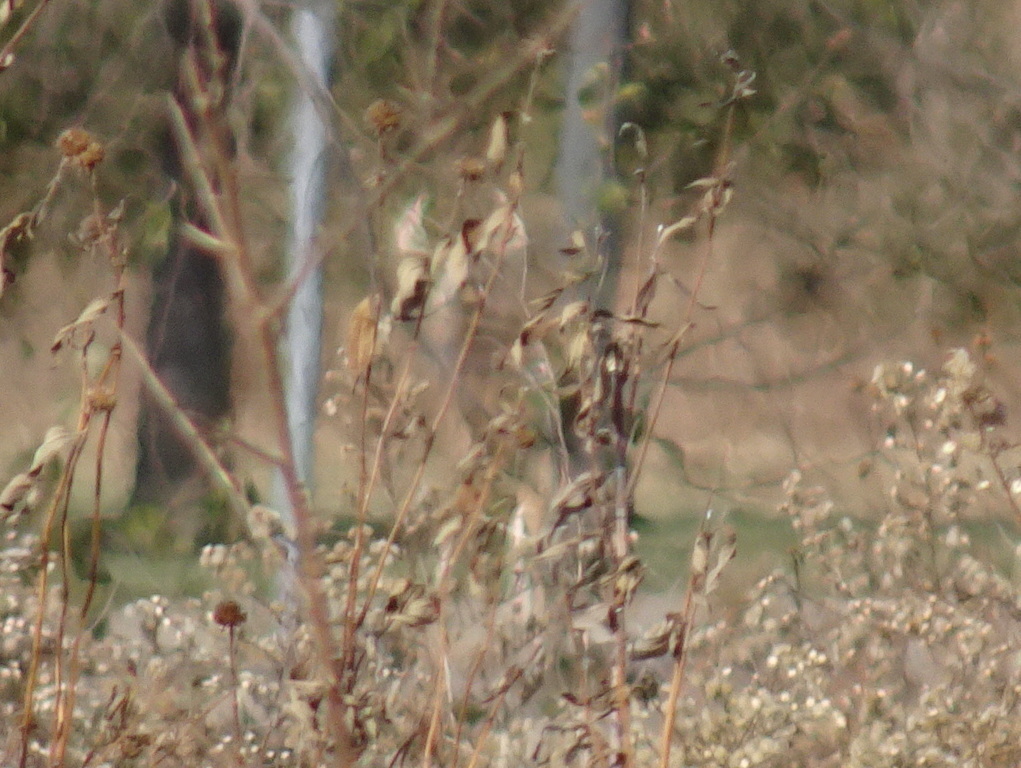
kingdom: Animalia
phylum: Chordata
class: Mammalia
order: Artiodactyla
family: Cervidae
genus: Odocoileus
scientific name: Odocoileus virginianus
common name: White-tailed deer
